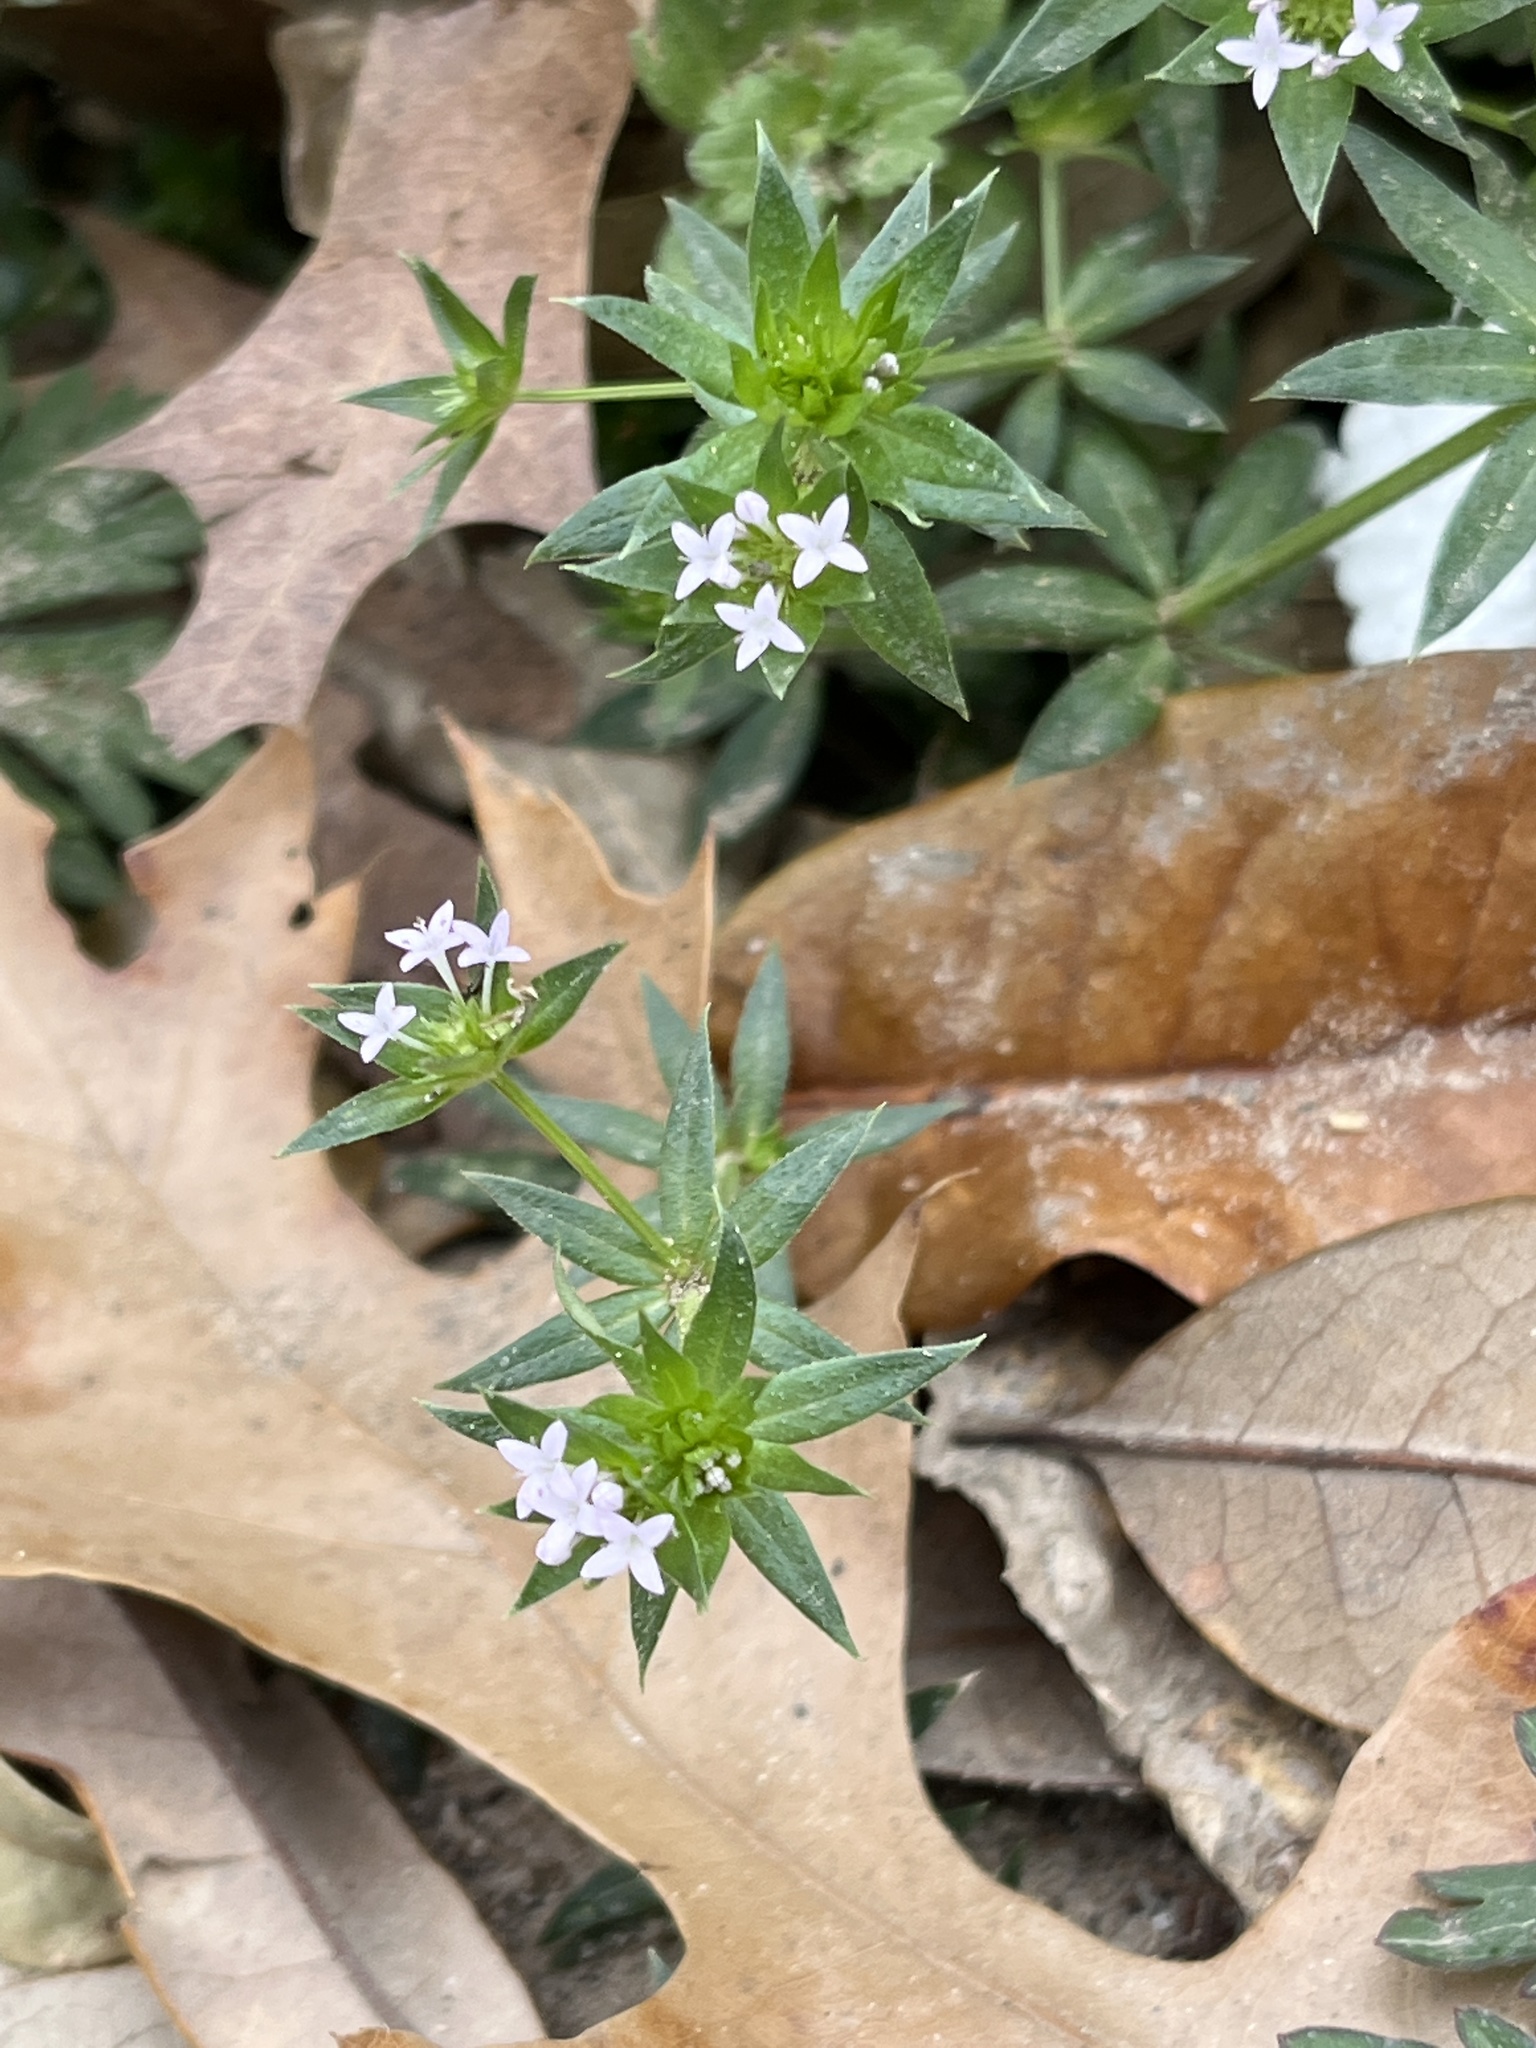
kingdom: Plantae
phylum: Tracheophyta
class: Magnoliopsida
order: Gentianales
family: Rubiaceae
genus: Sherardia
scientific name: Sherardia arvensis
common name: Field madder
